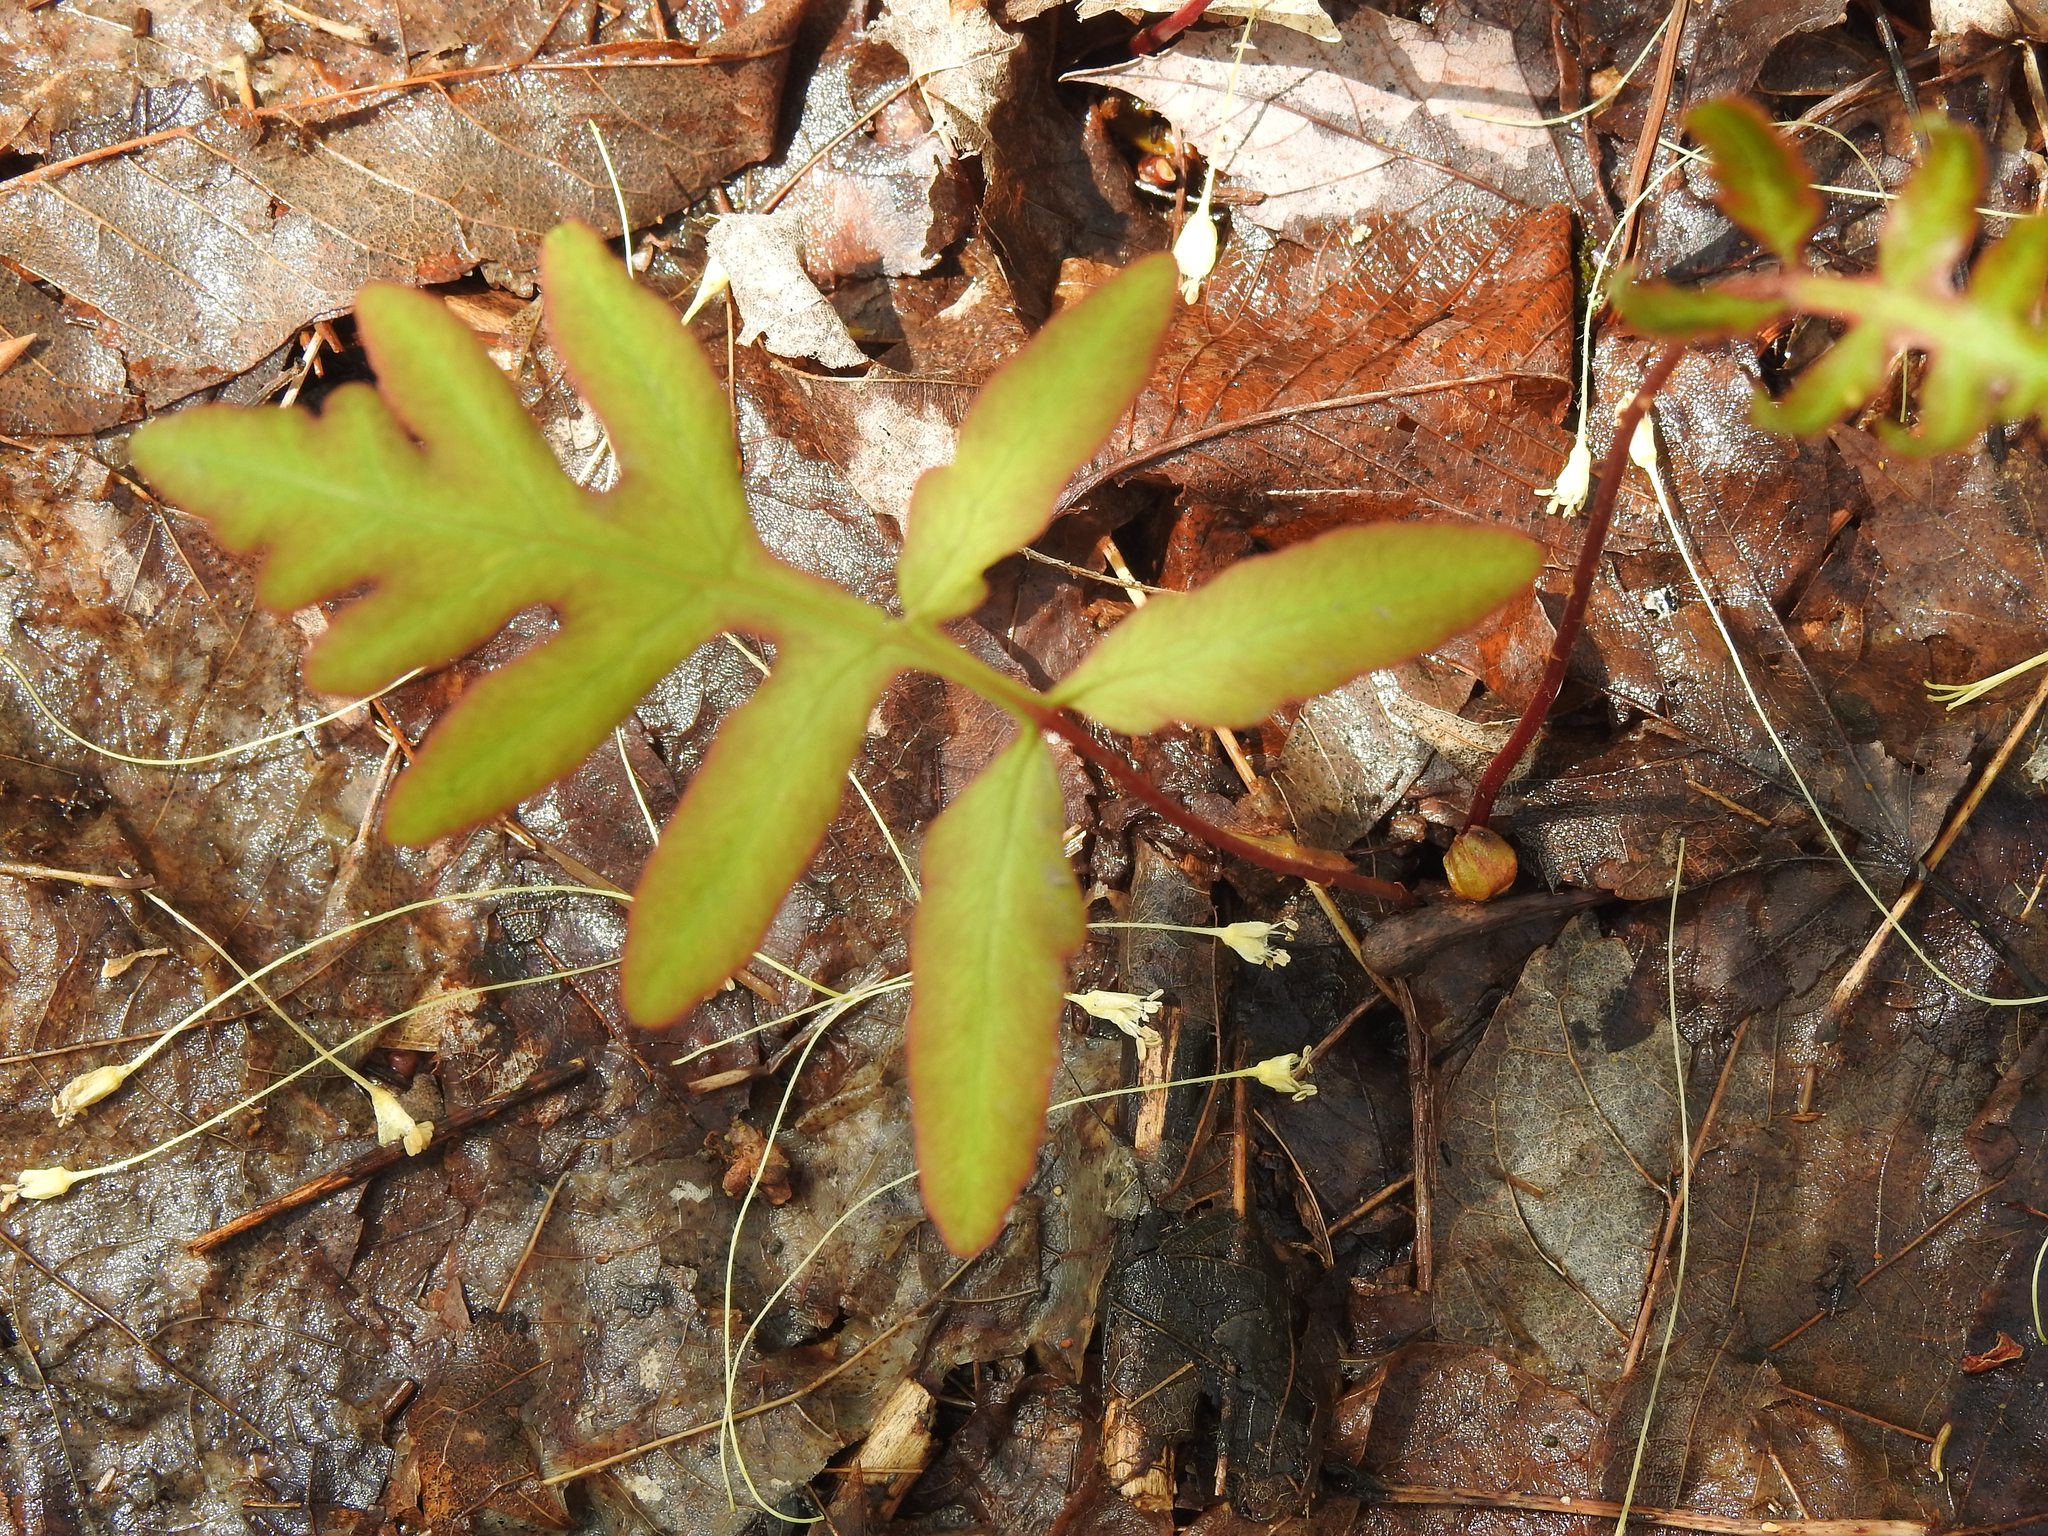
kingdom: Plantae
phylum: Tracheophyta
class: Polypodiopsida
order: Polypodiales
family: Onocleaceae
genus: Onoclea
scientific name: Onoclea sensibilis
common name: Sensitive fern
